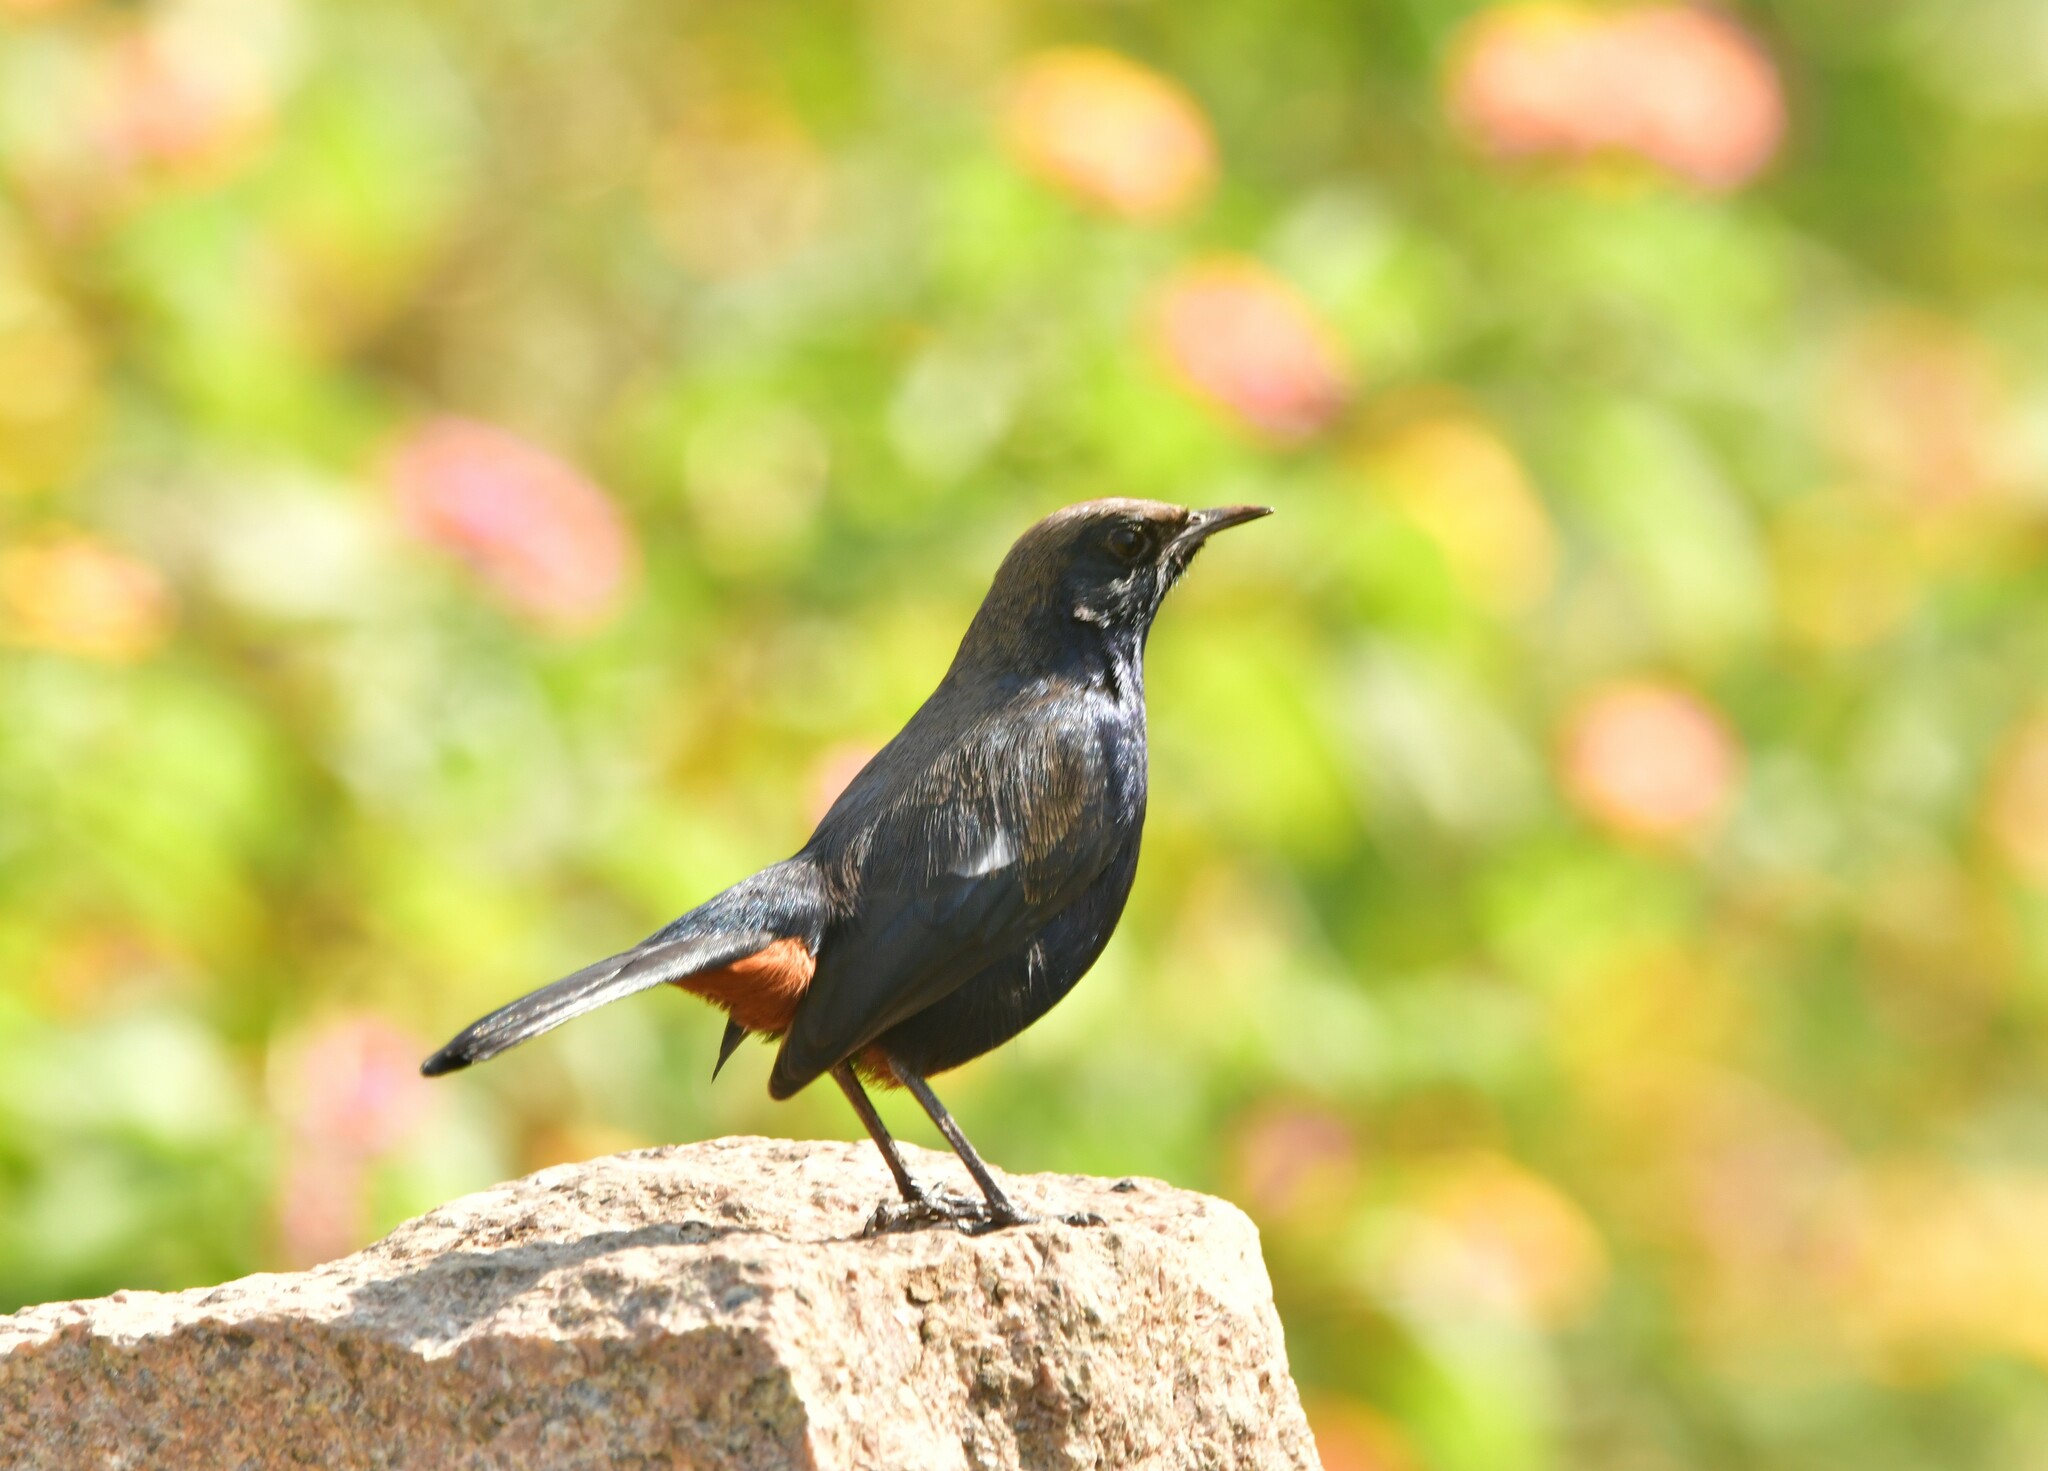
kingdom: Animalia
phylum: Chordata
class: Aves
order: Passeriformes
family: Muscicapidae
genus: Saxicoloides
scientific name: Saxicoloides fulicatus
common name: Indian robin
